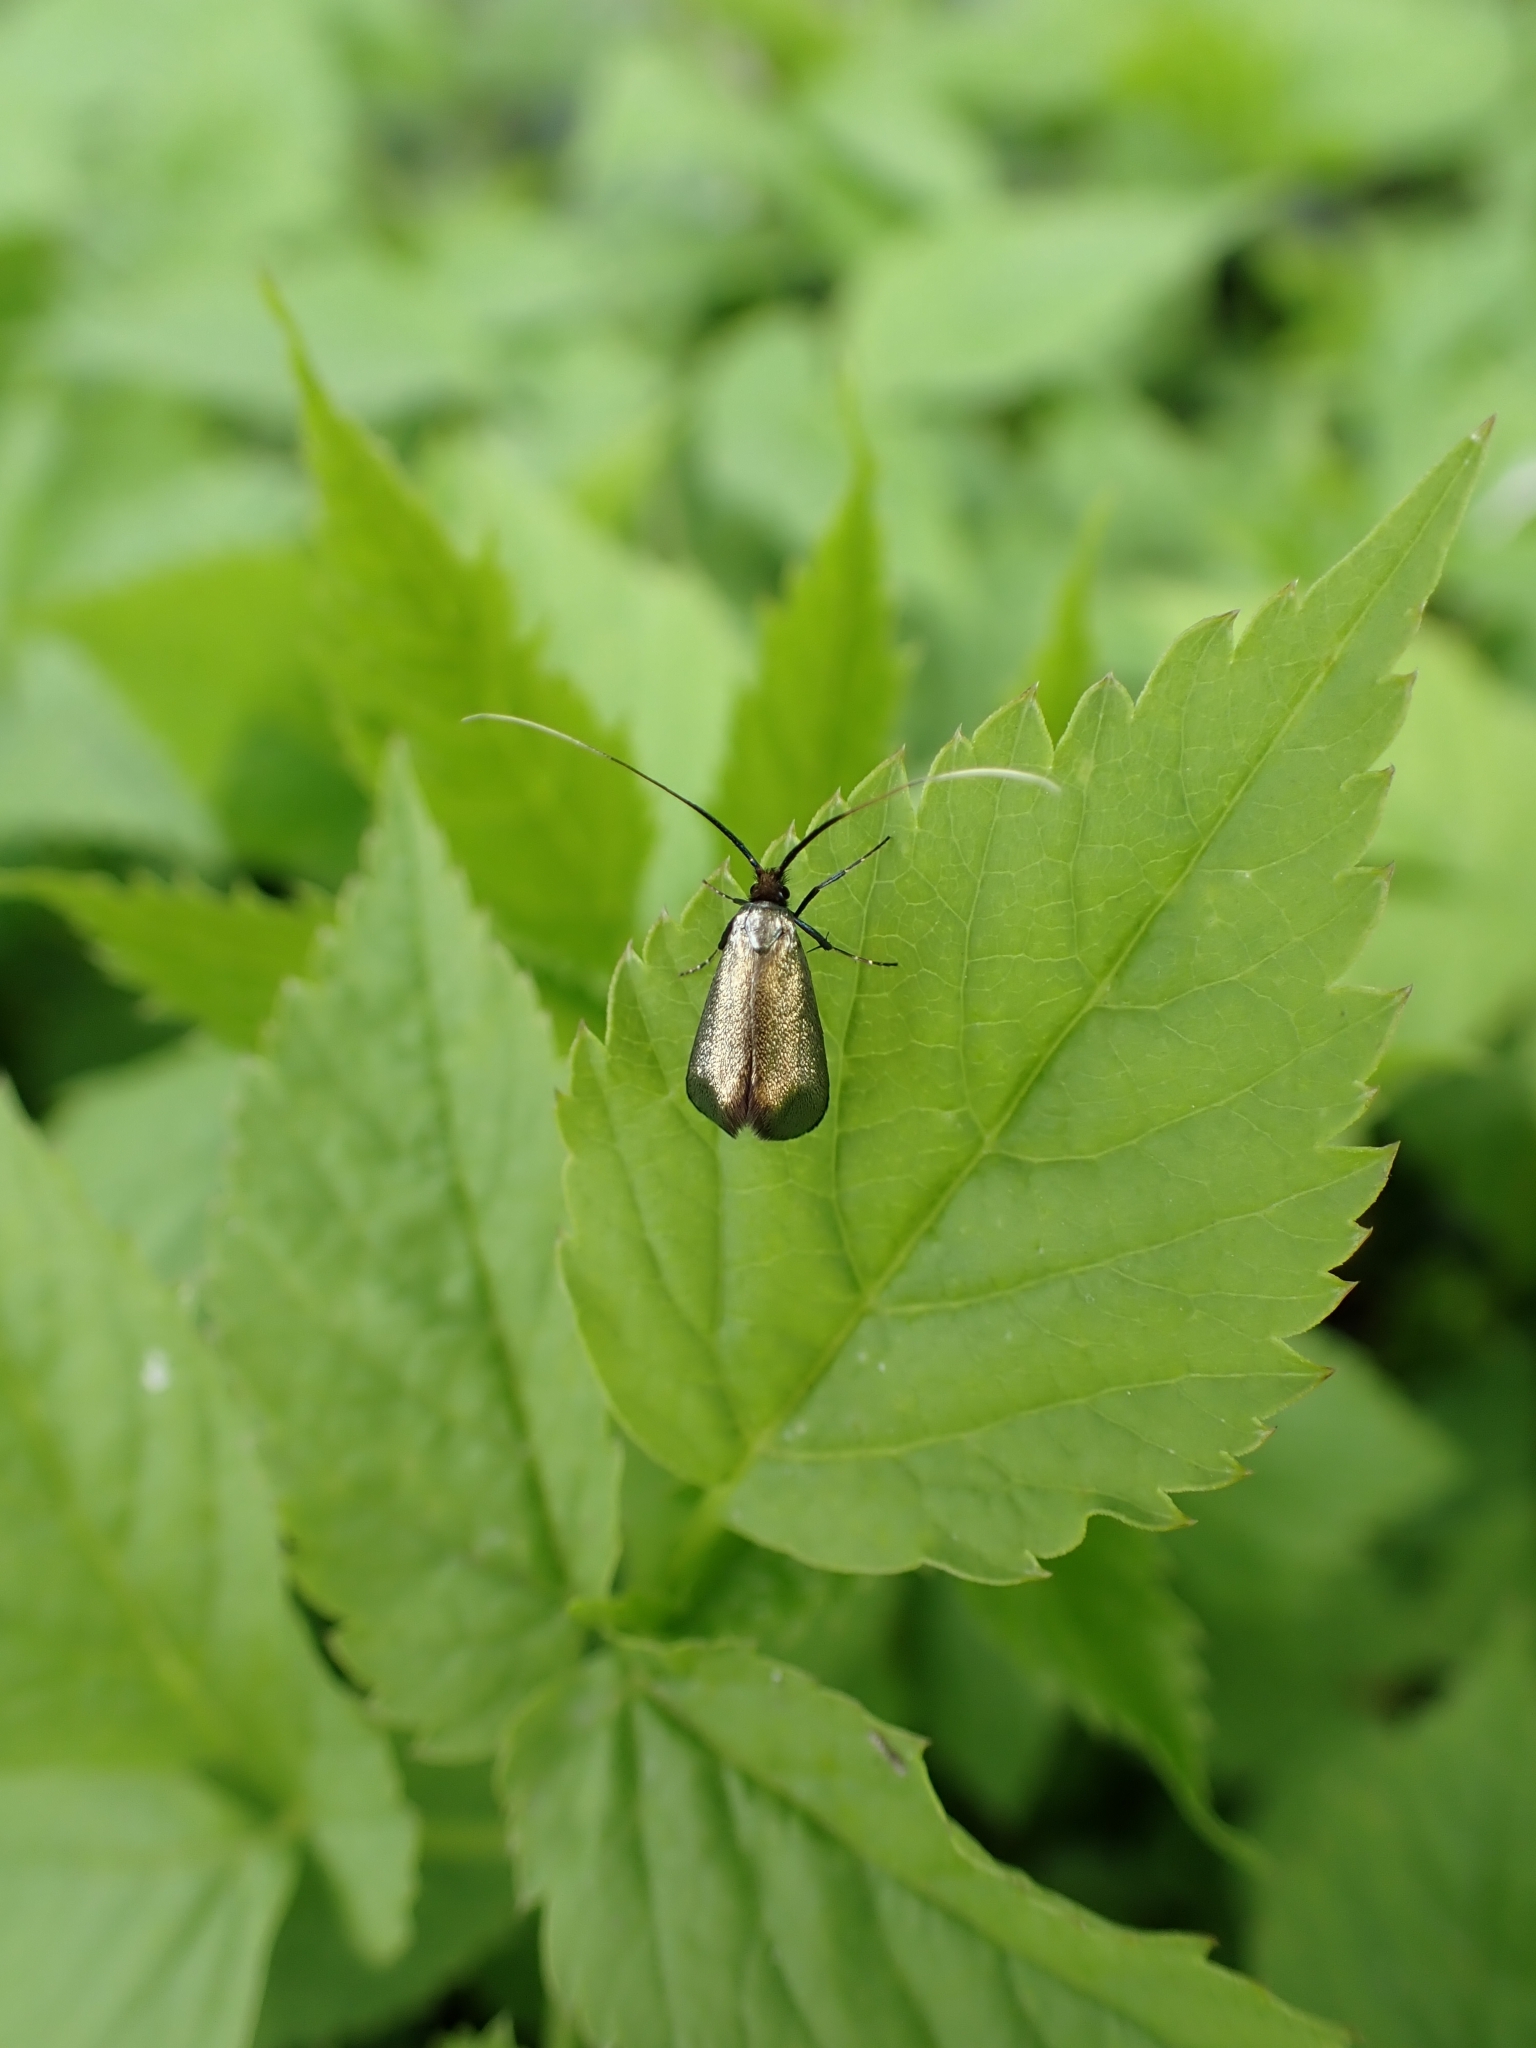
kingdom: Animalia
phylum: Arthropoda
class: Insecta
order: Lepidoptera
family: Adelidae
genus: Adela
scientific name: Adela viridella
